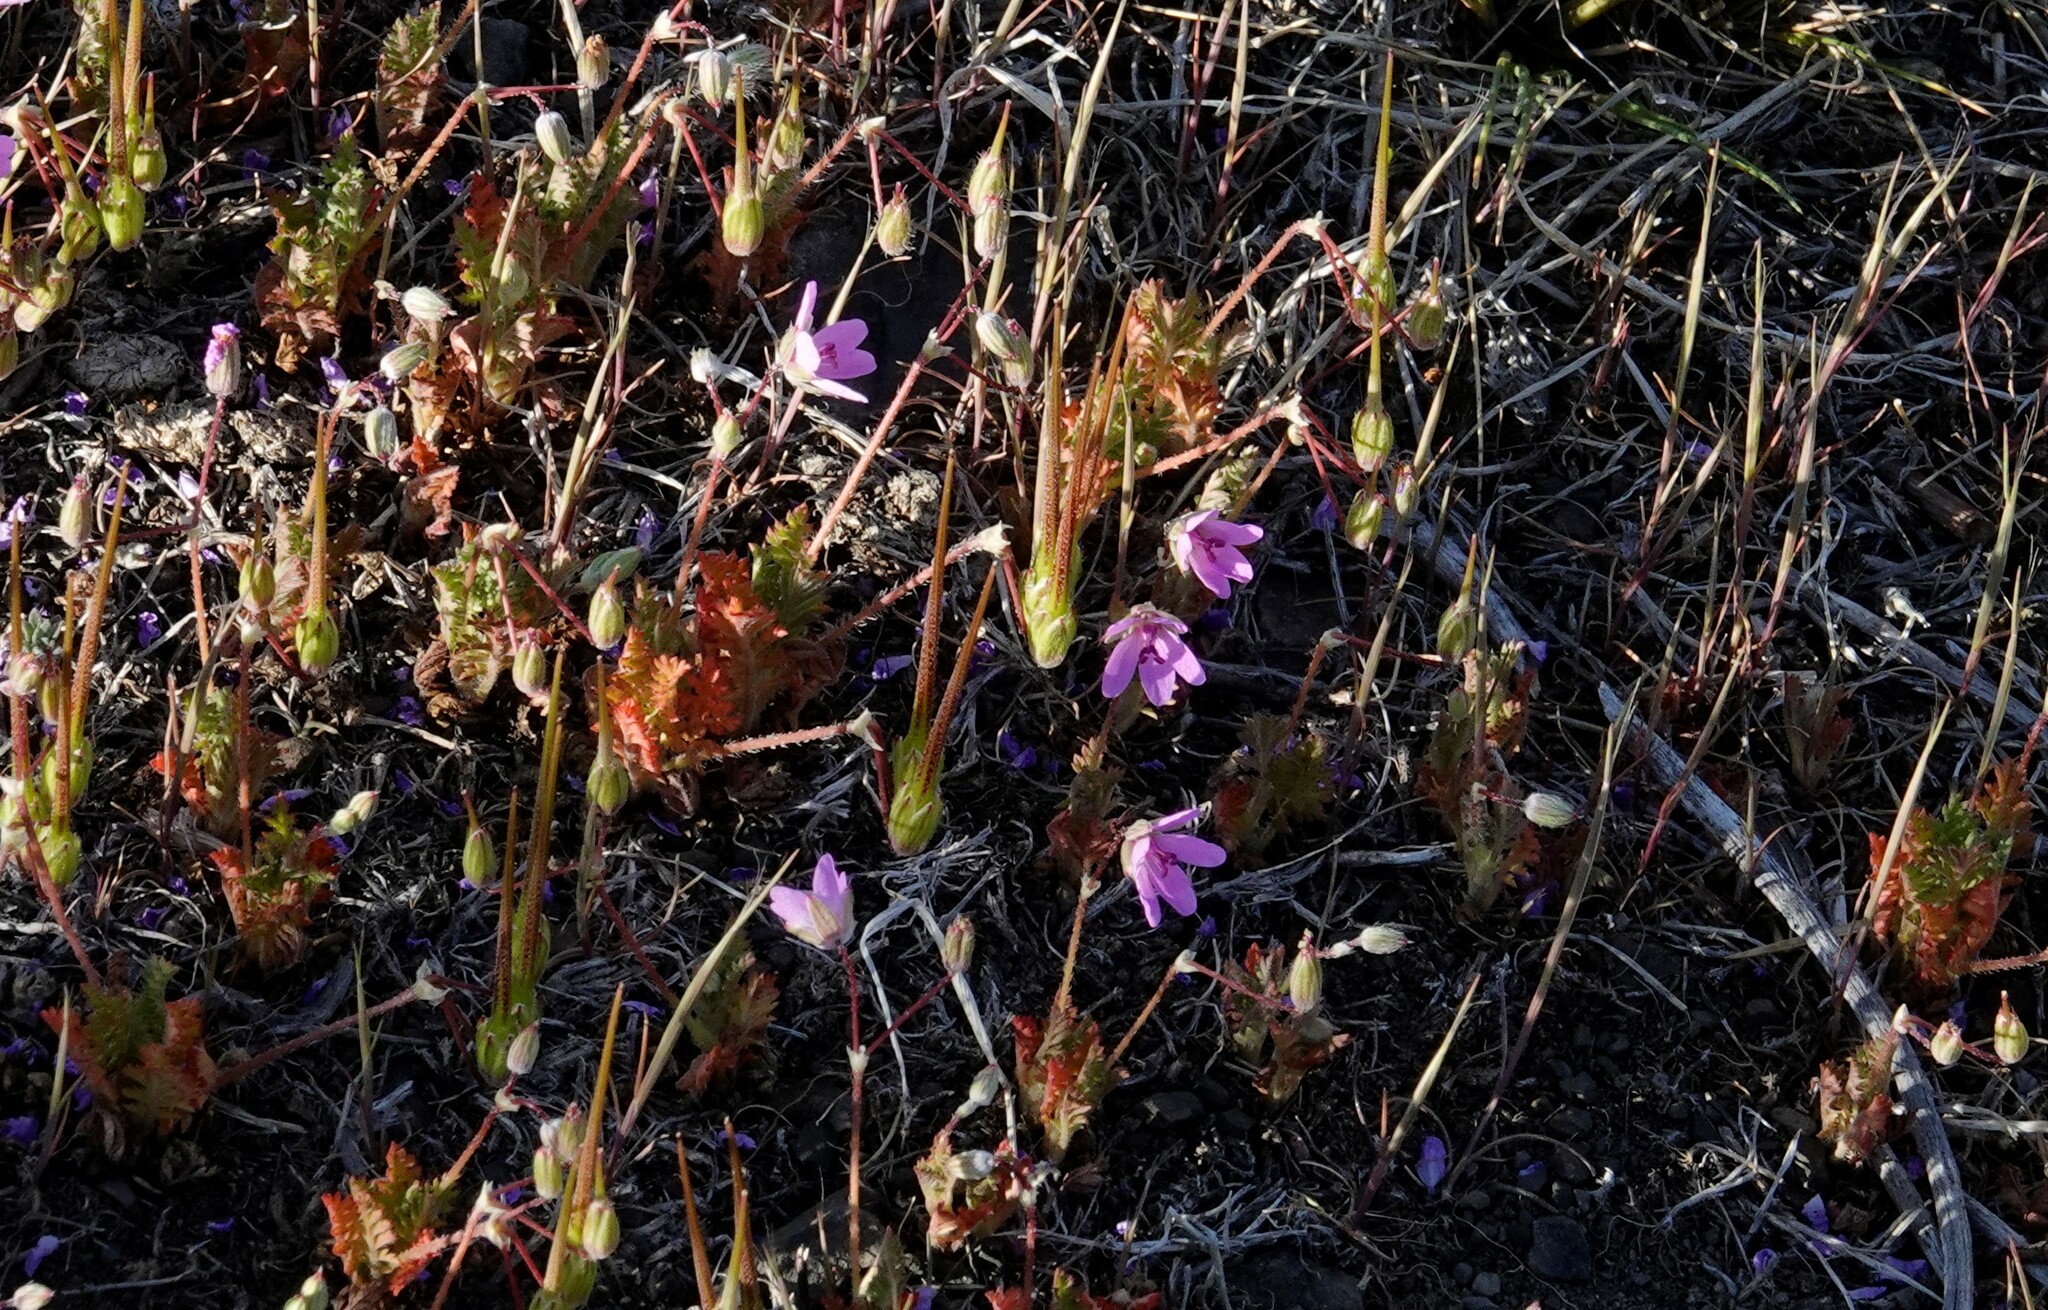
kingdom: Plantae
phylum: Tracheophyta
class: Magnoliopsida
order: Geraniales
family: Geraniaceae
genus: Erodium
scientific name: Erodium cicutarium
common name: Common stork's-bill
